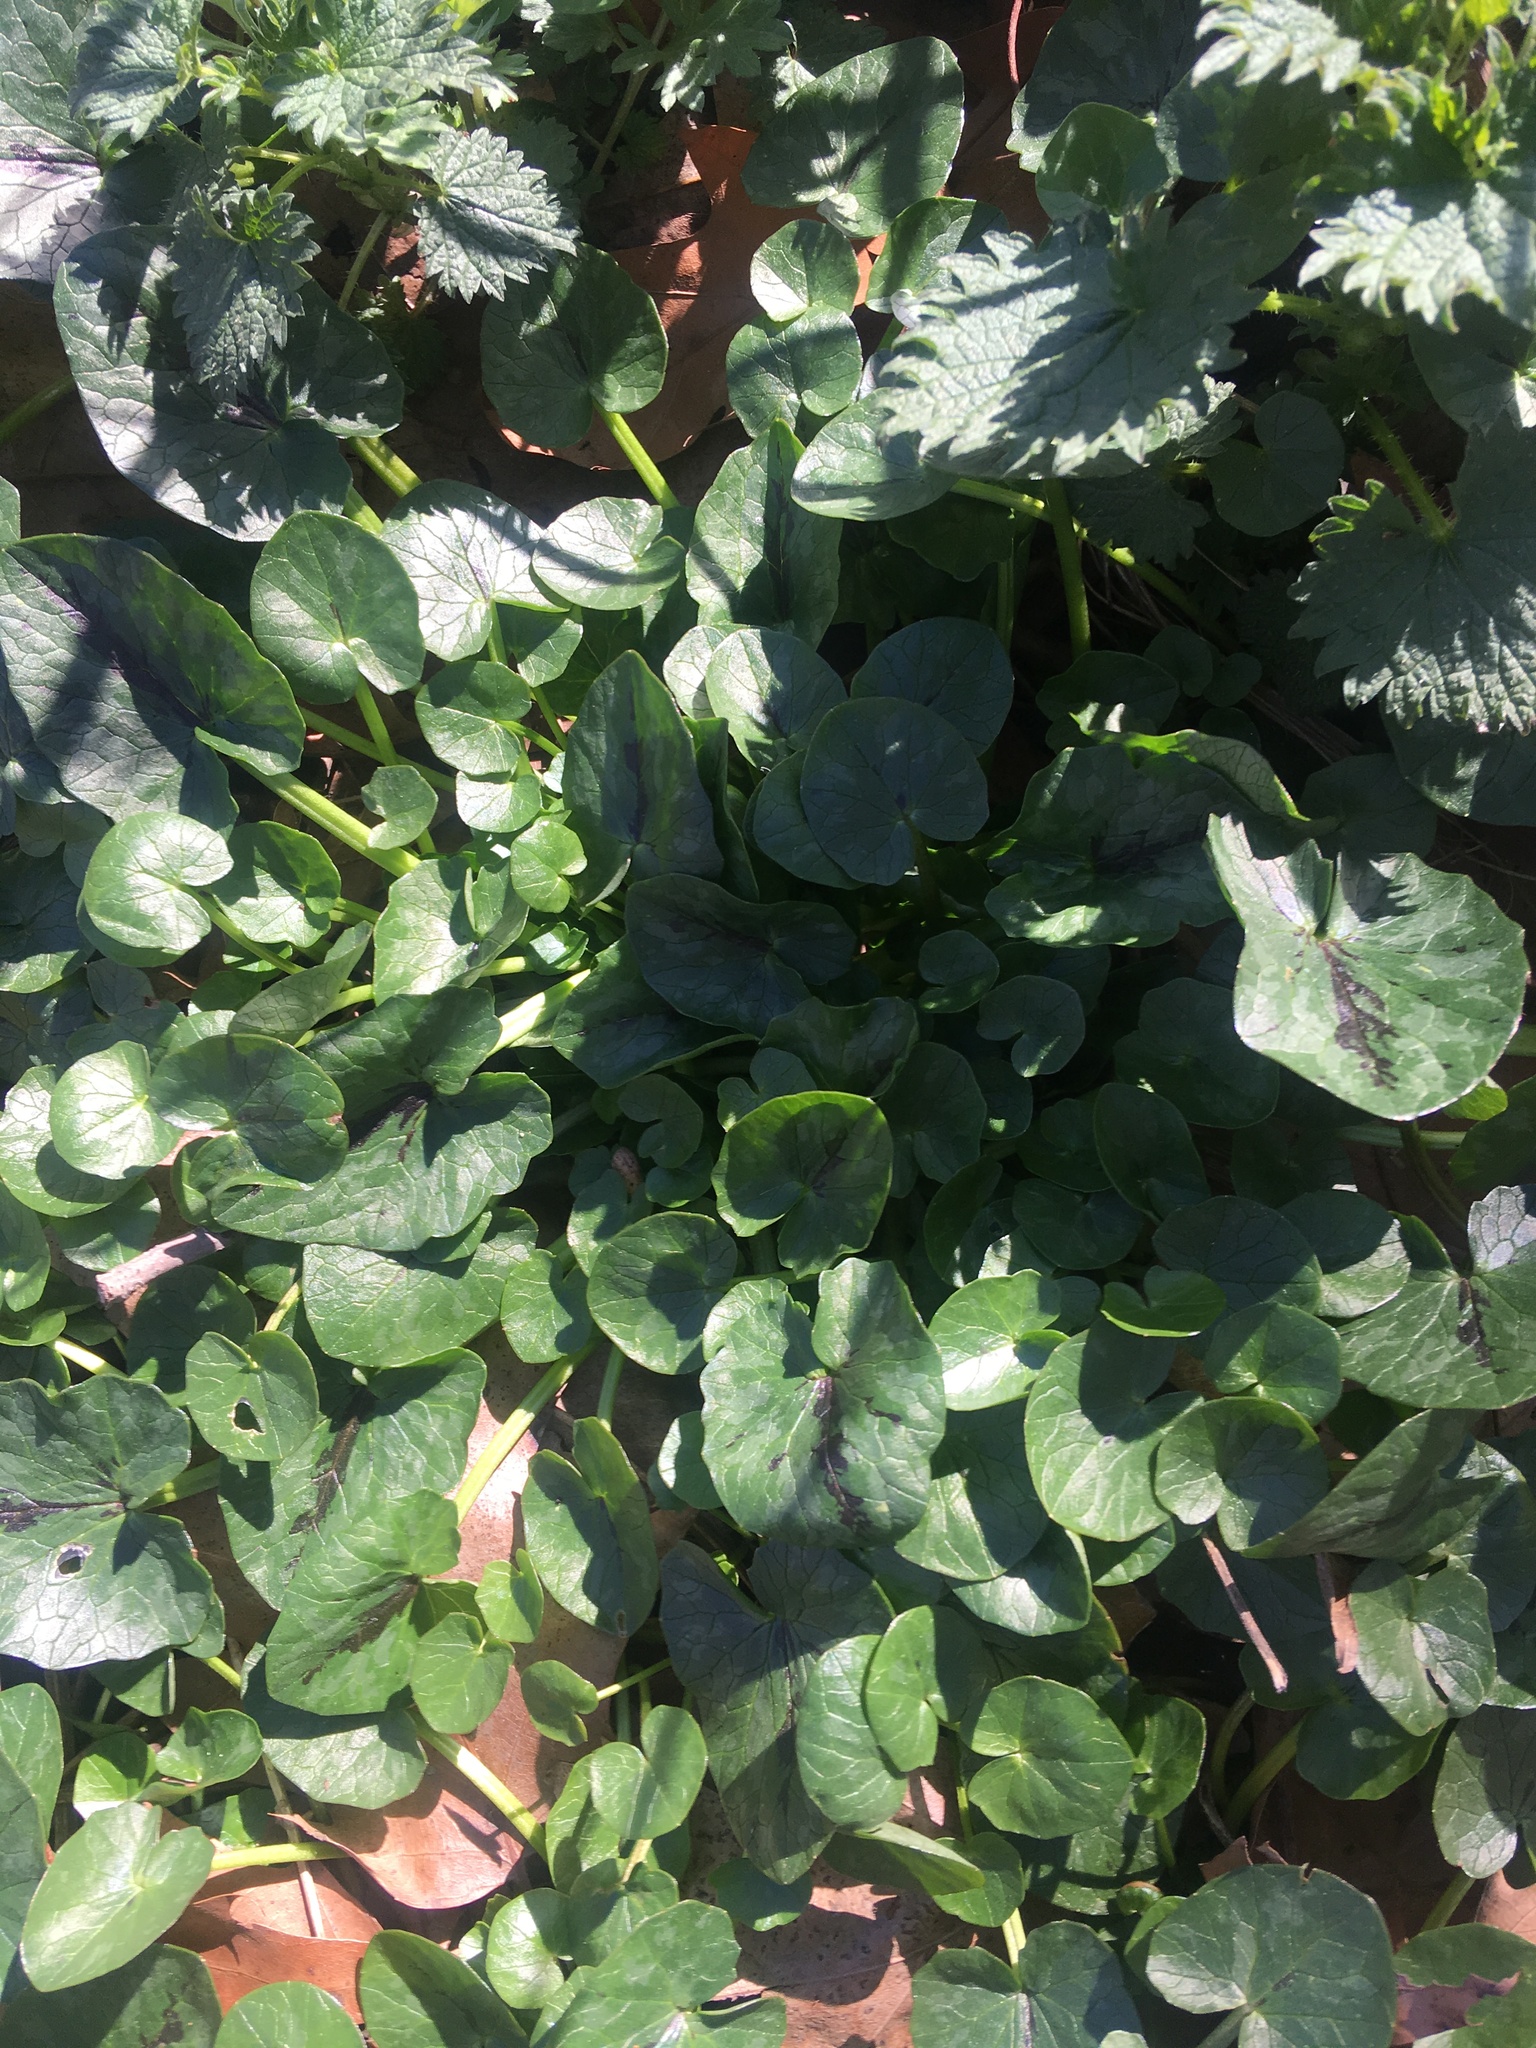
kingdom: Plantae
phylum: Tracheophyta
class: Magnoliopsida
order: Ranunculales
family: Ranunculaceae
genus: Ficaria
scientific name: Ficaria verna
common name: Lesser celandine
